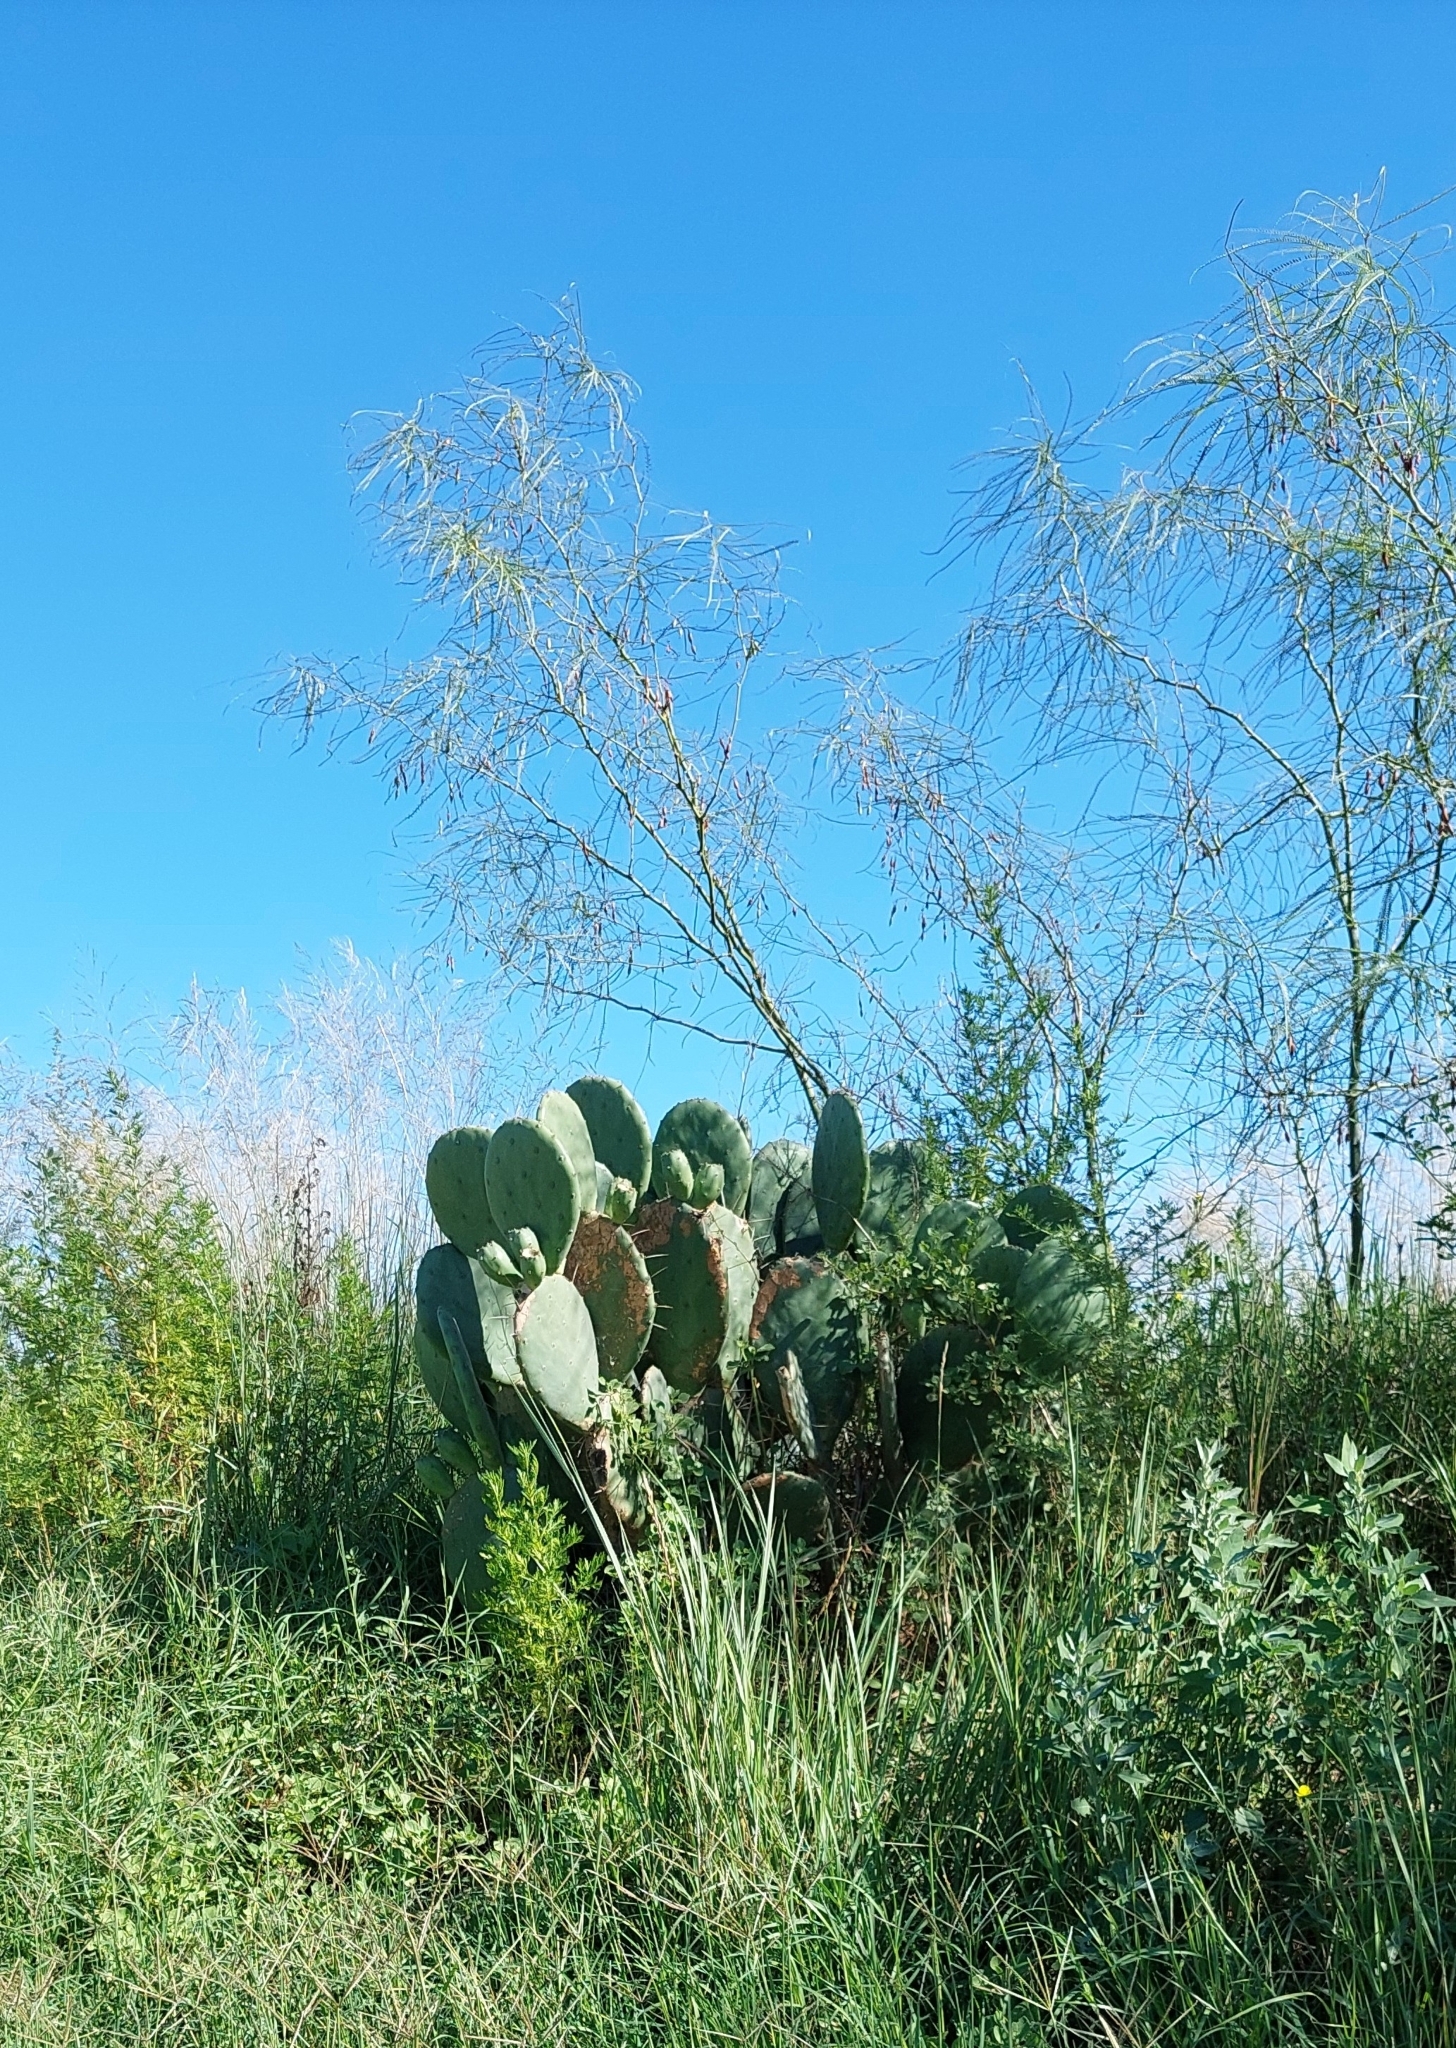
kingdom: Plantae
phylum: Tracheophyta
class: Magnoliopsida
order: Caryophyllales
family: Cactaceae
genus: Opuntia
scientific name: Opuntia megapotamica
